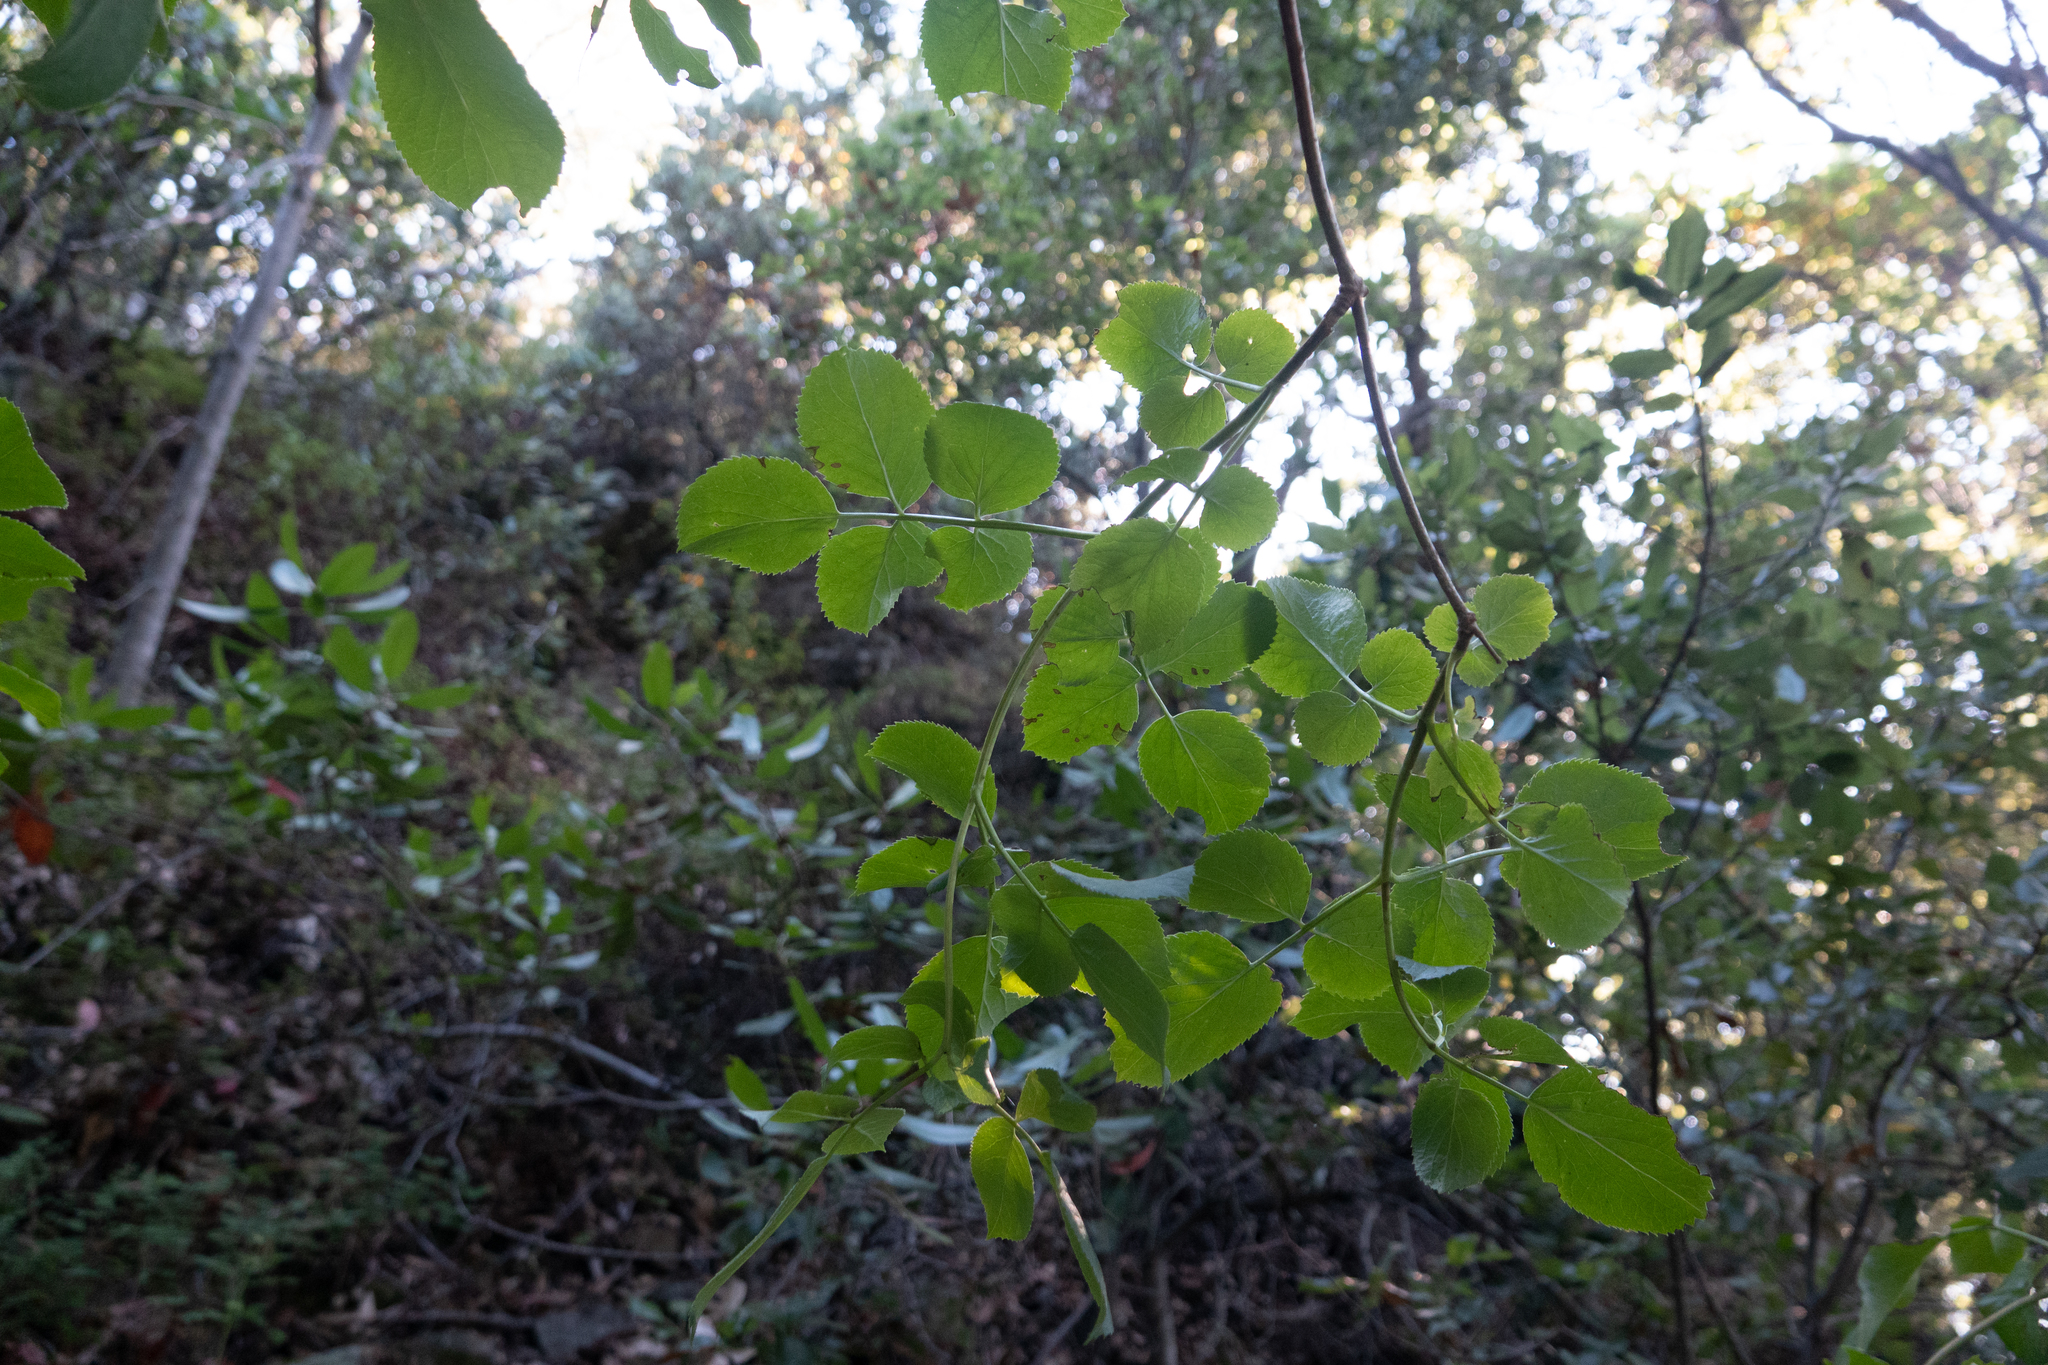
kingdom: Plantae
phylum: Tracheophyta
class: Magnoliopsida
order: Dipsacales
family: Viburnaceae
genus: Sambucus
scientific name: Sambucus cerulea
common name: Blue elder
